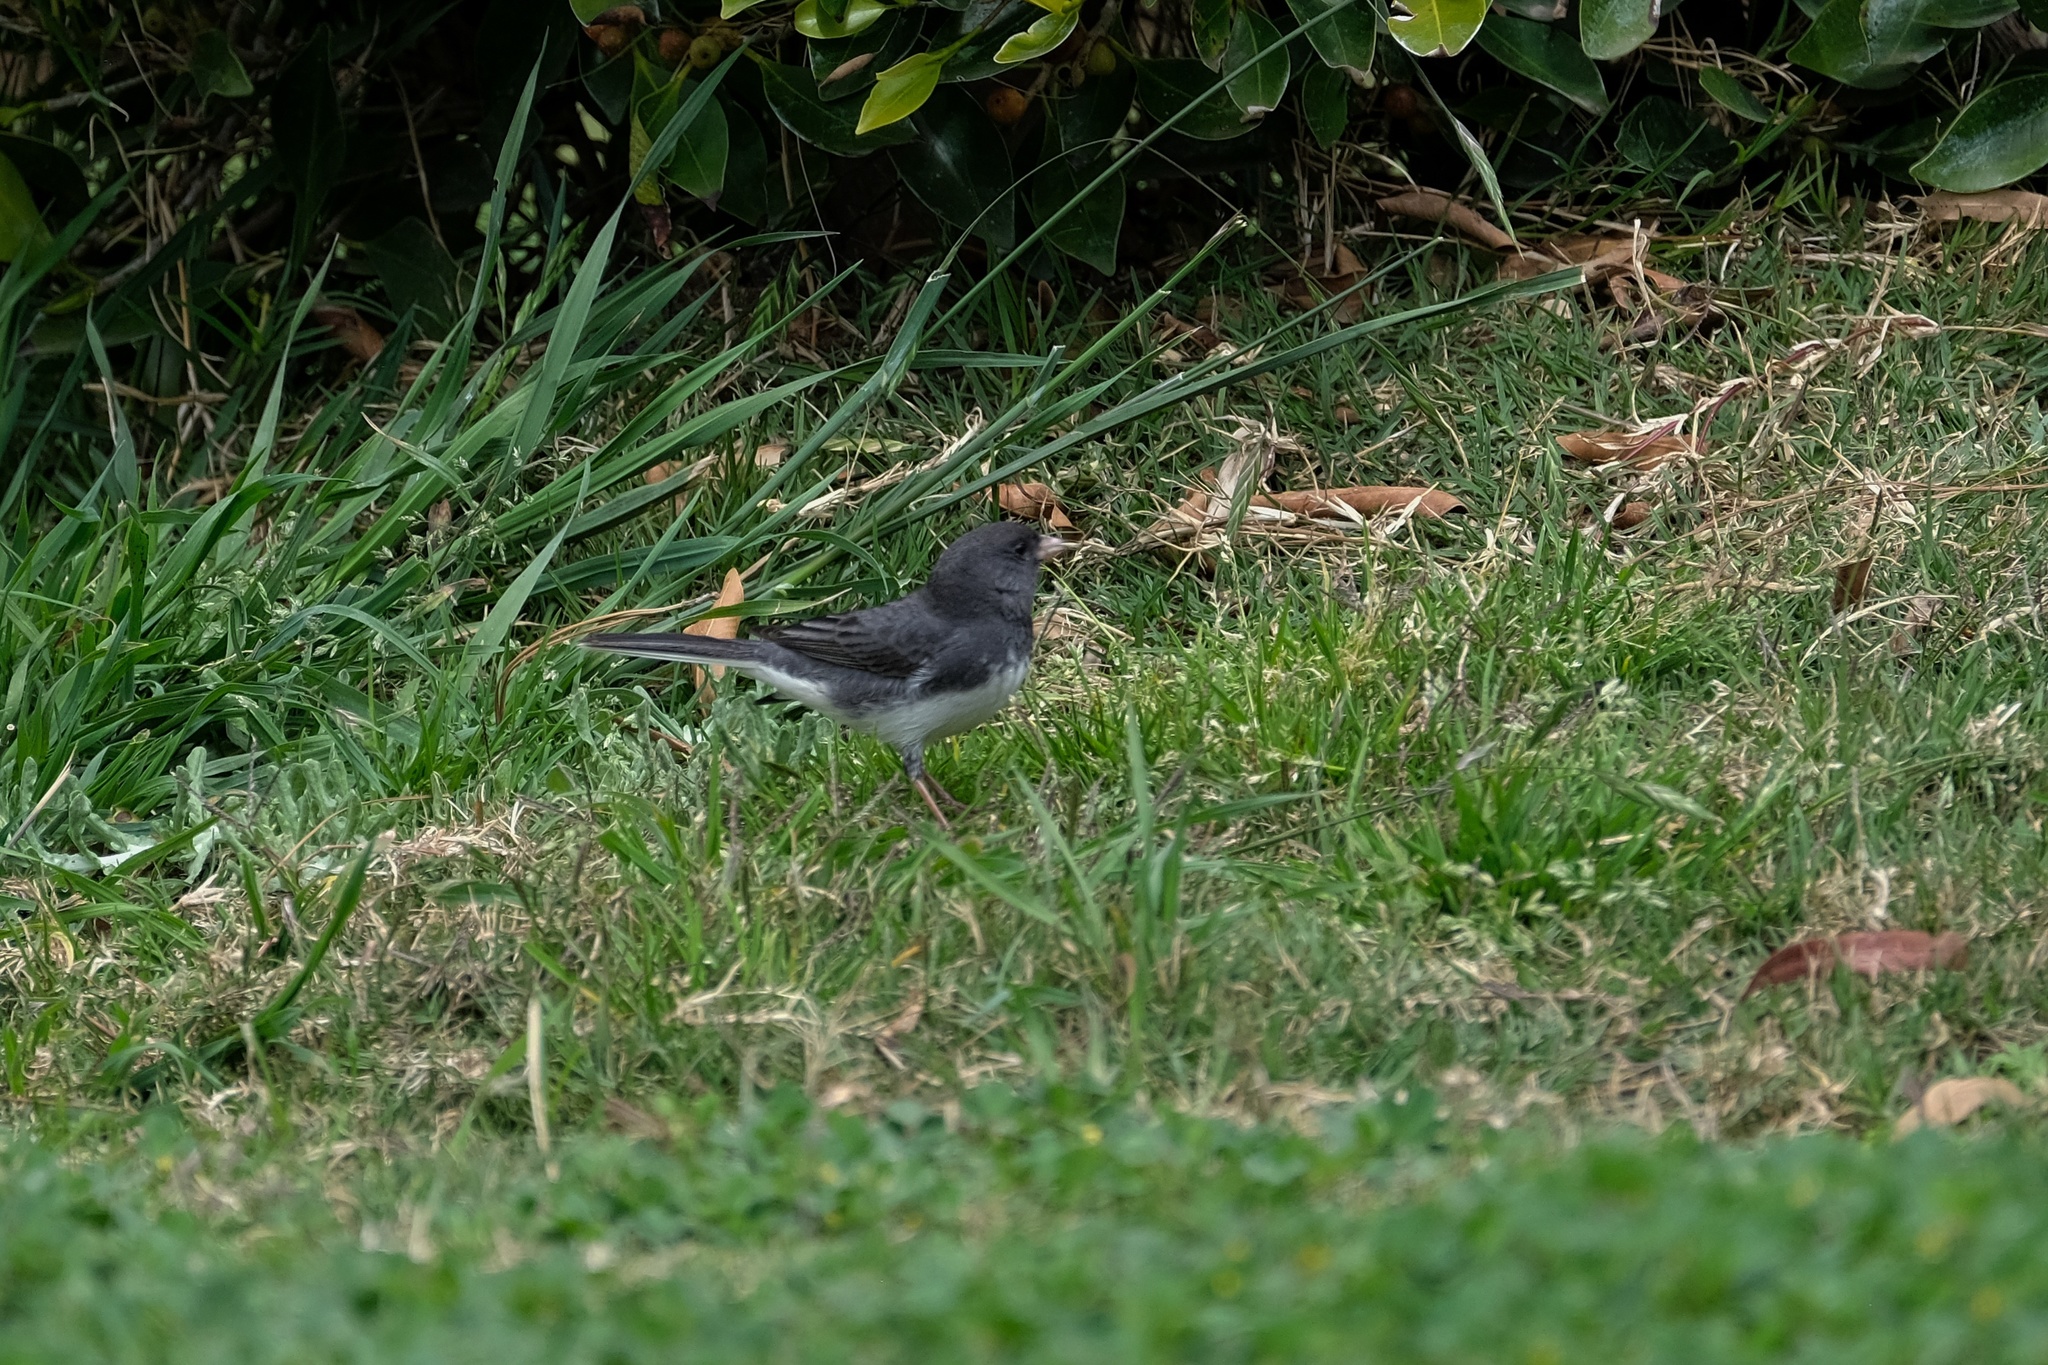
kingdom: Animalia
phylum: Chordata
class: Aves
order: Passeriformes
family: Passerellidae
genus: Junco
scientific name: Junco hyemalis
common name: Dark-eyed junco
